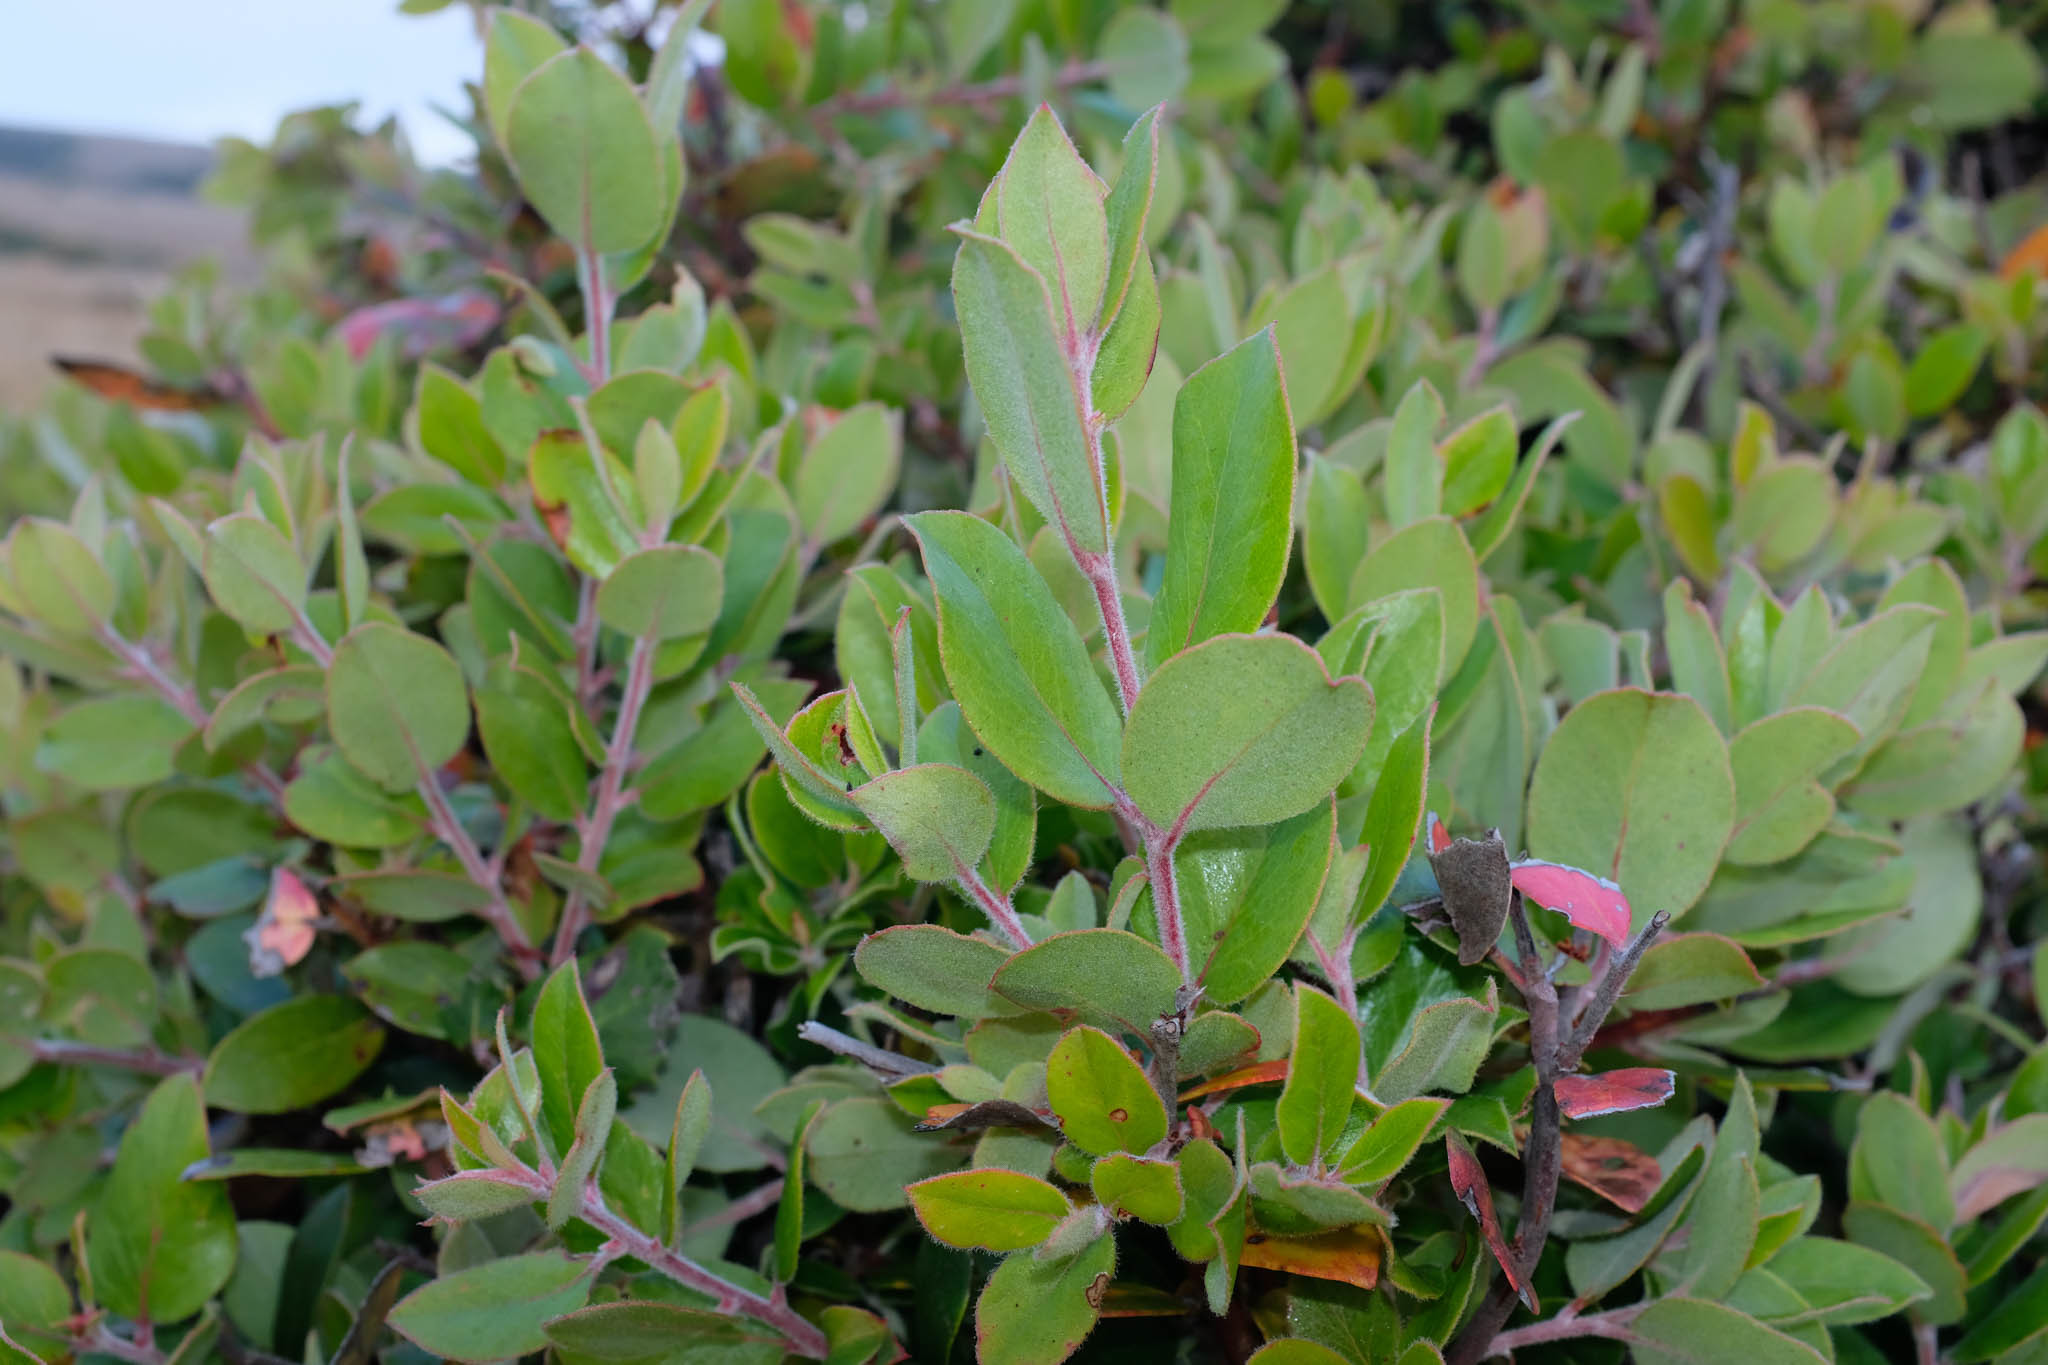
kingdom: Plantae
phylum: Tracheophyta
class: Magnoliopsida
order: Ericales
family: Ericaceae
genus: Arctostaphylos
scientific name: Arctostaphylos tomentosa
